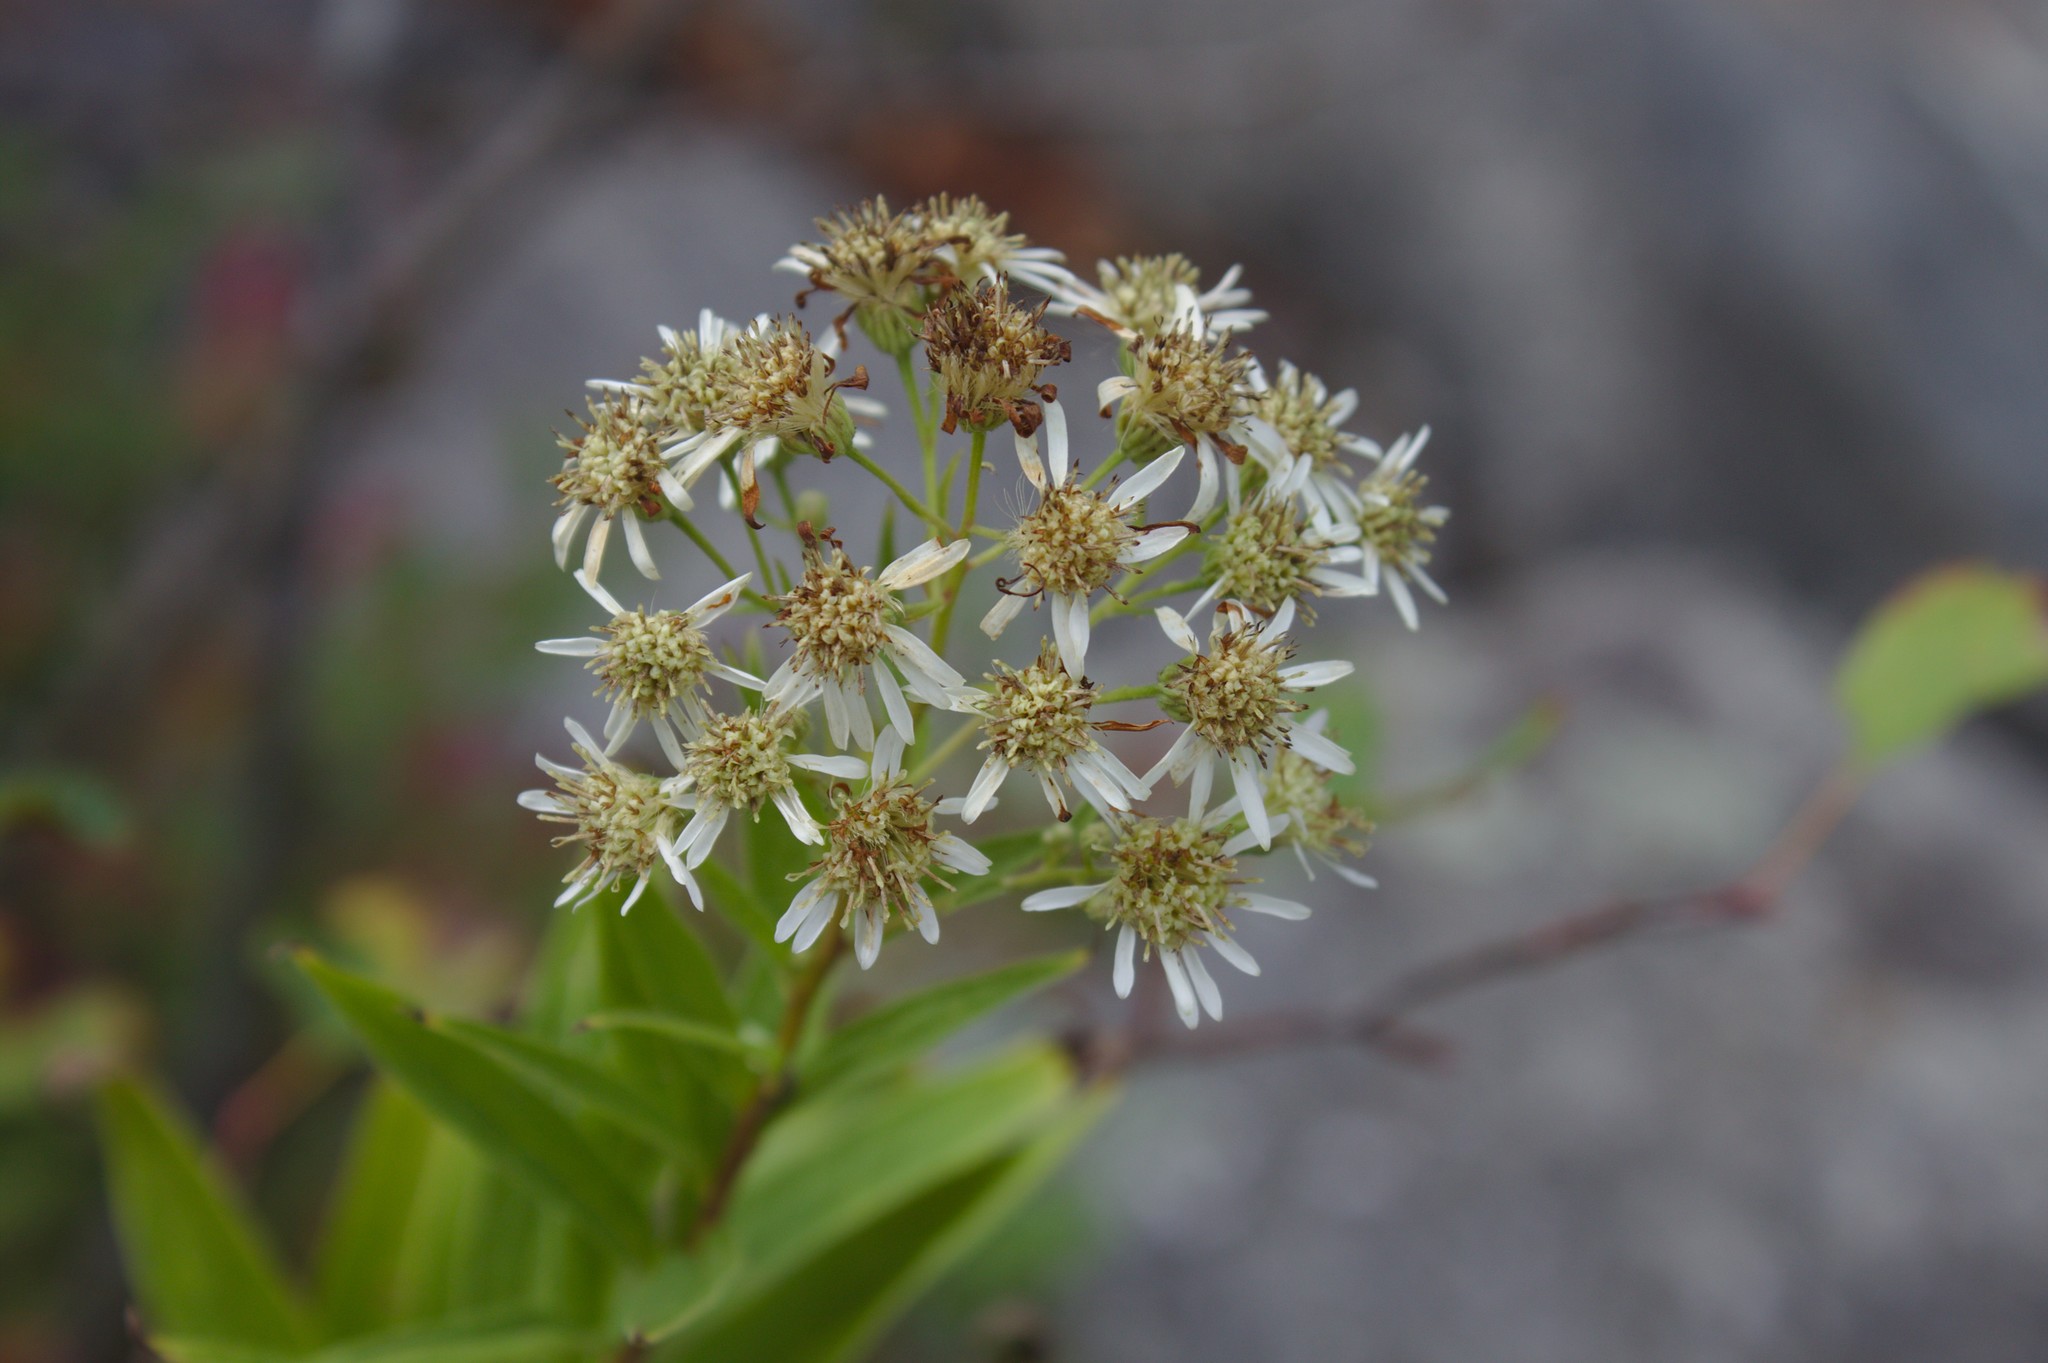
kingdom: Plantae
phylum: Tracheophyta
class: Magnoliopsida
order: Asterales
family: Asteraceae
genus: Doellingeria
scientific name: Doellingeria umbellata
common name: Flat-top white aster
